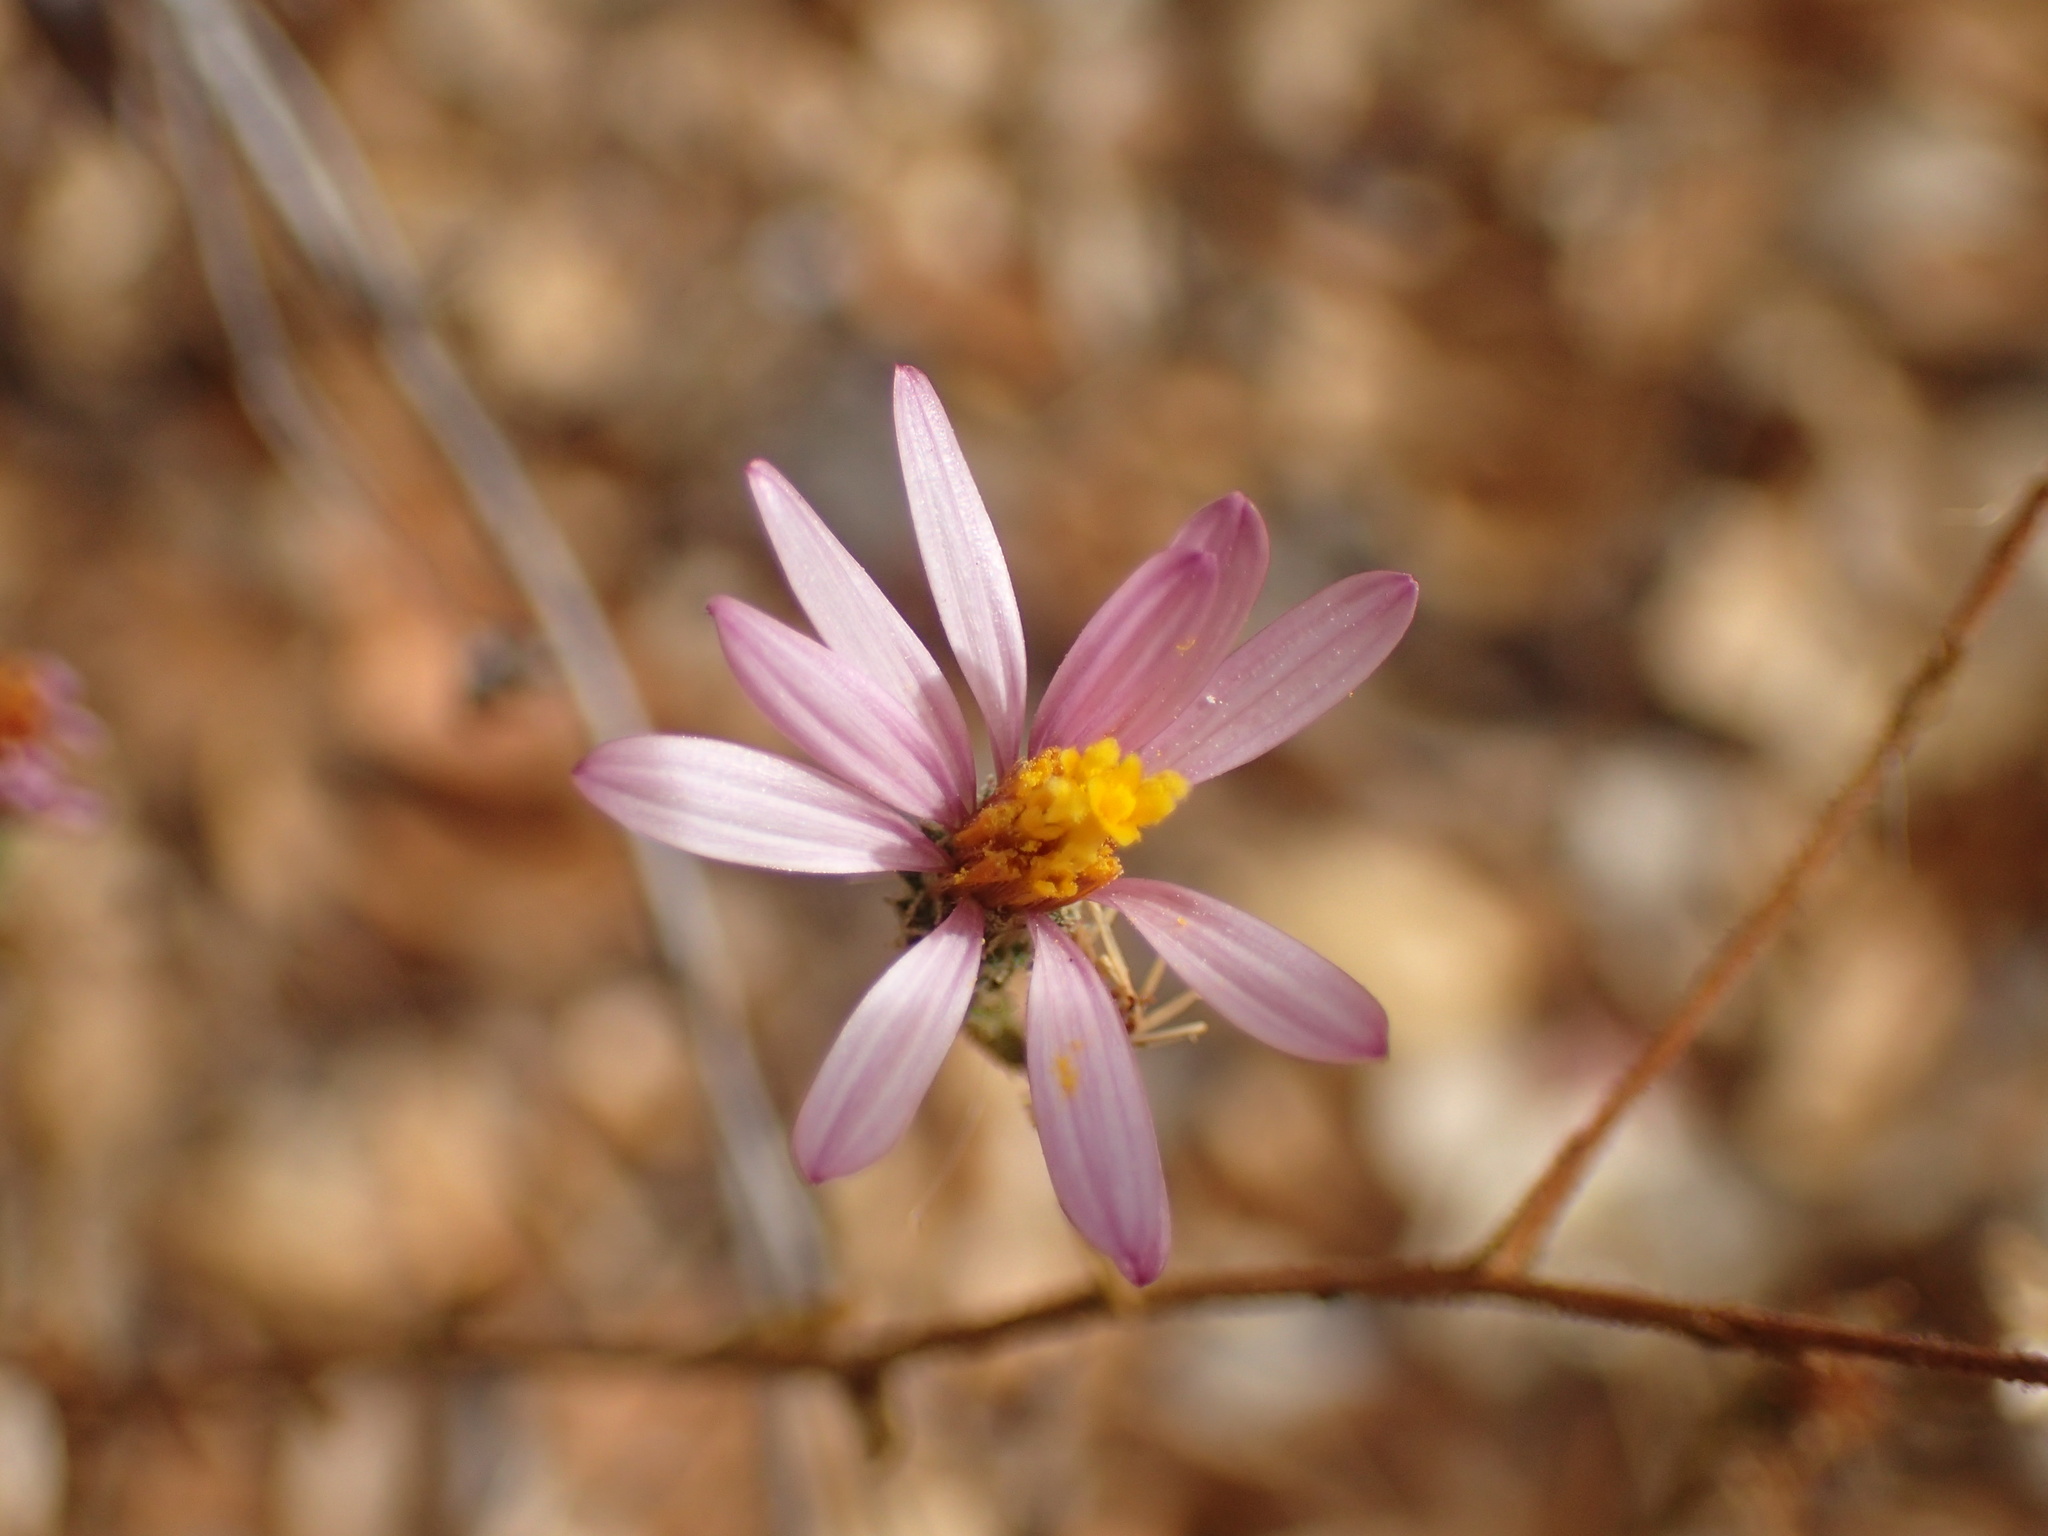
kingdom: Plantae
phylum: Tracheophyta
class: Magnoliopsida
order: Asterales
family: Asteraceae
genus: Corethrogyne
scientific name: Corethrogyne filaginifolia
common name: Sand-aster
